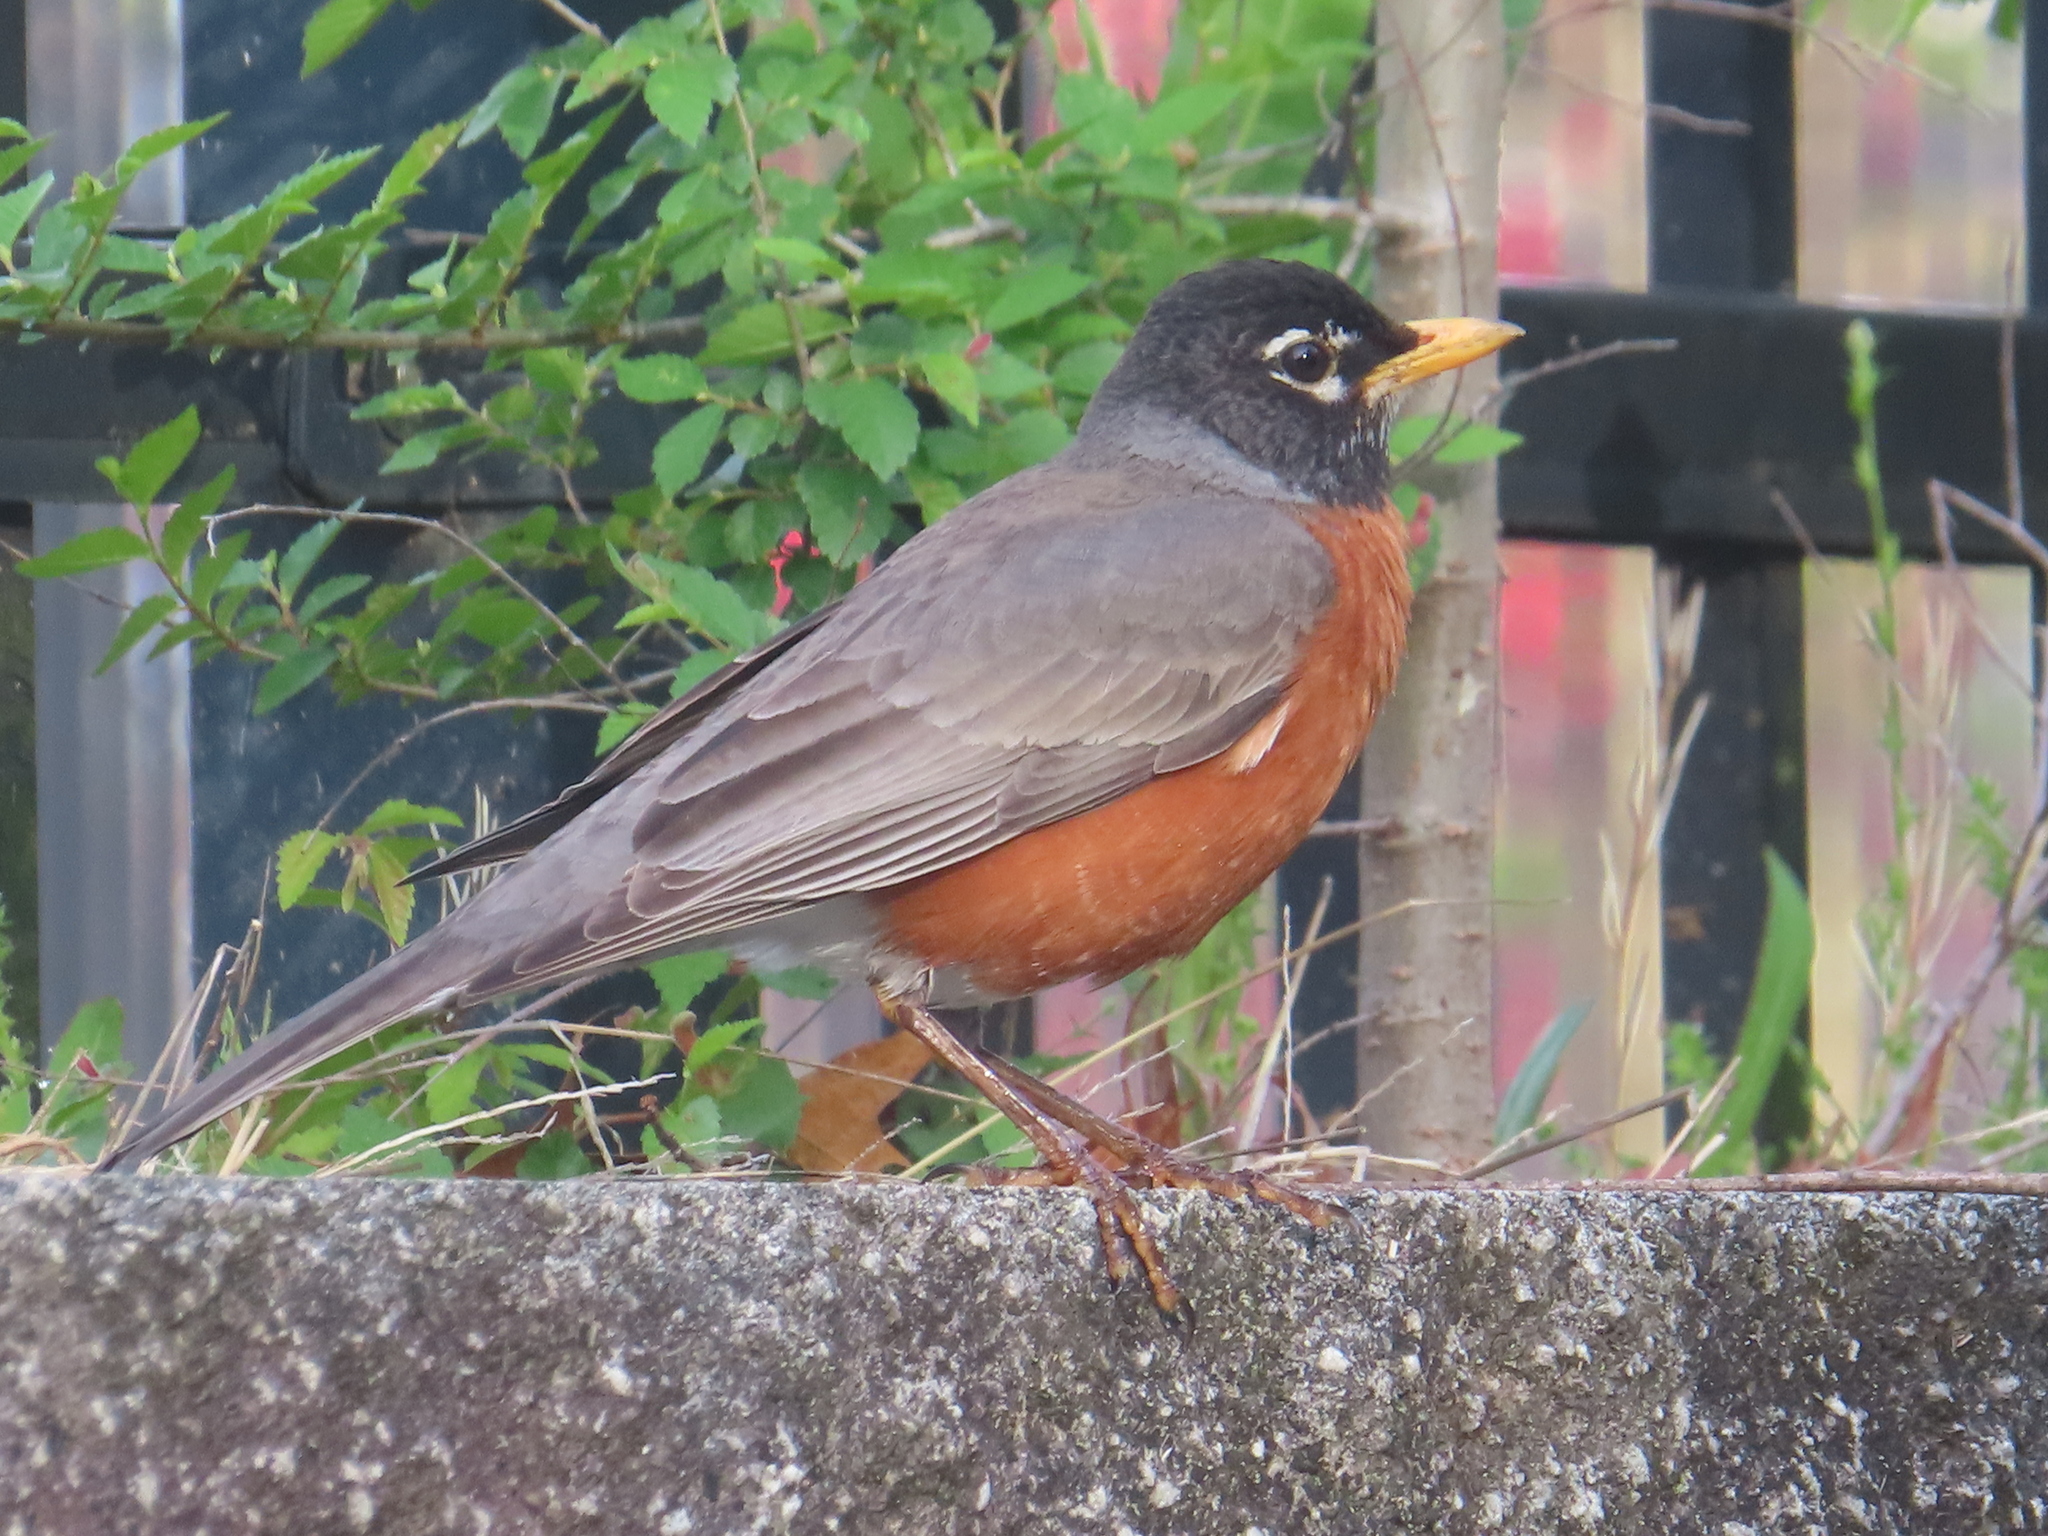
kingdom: Animalia
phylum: Chordata
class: Aves
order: Passeriformes
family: Turdidae
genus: Turdus
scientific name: Turdus migratorius
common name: American robin
